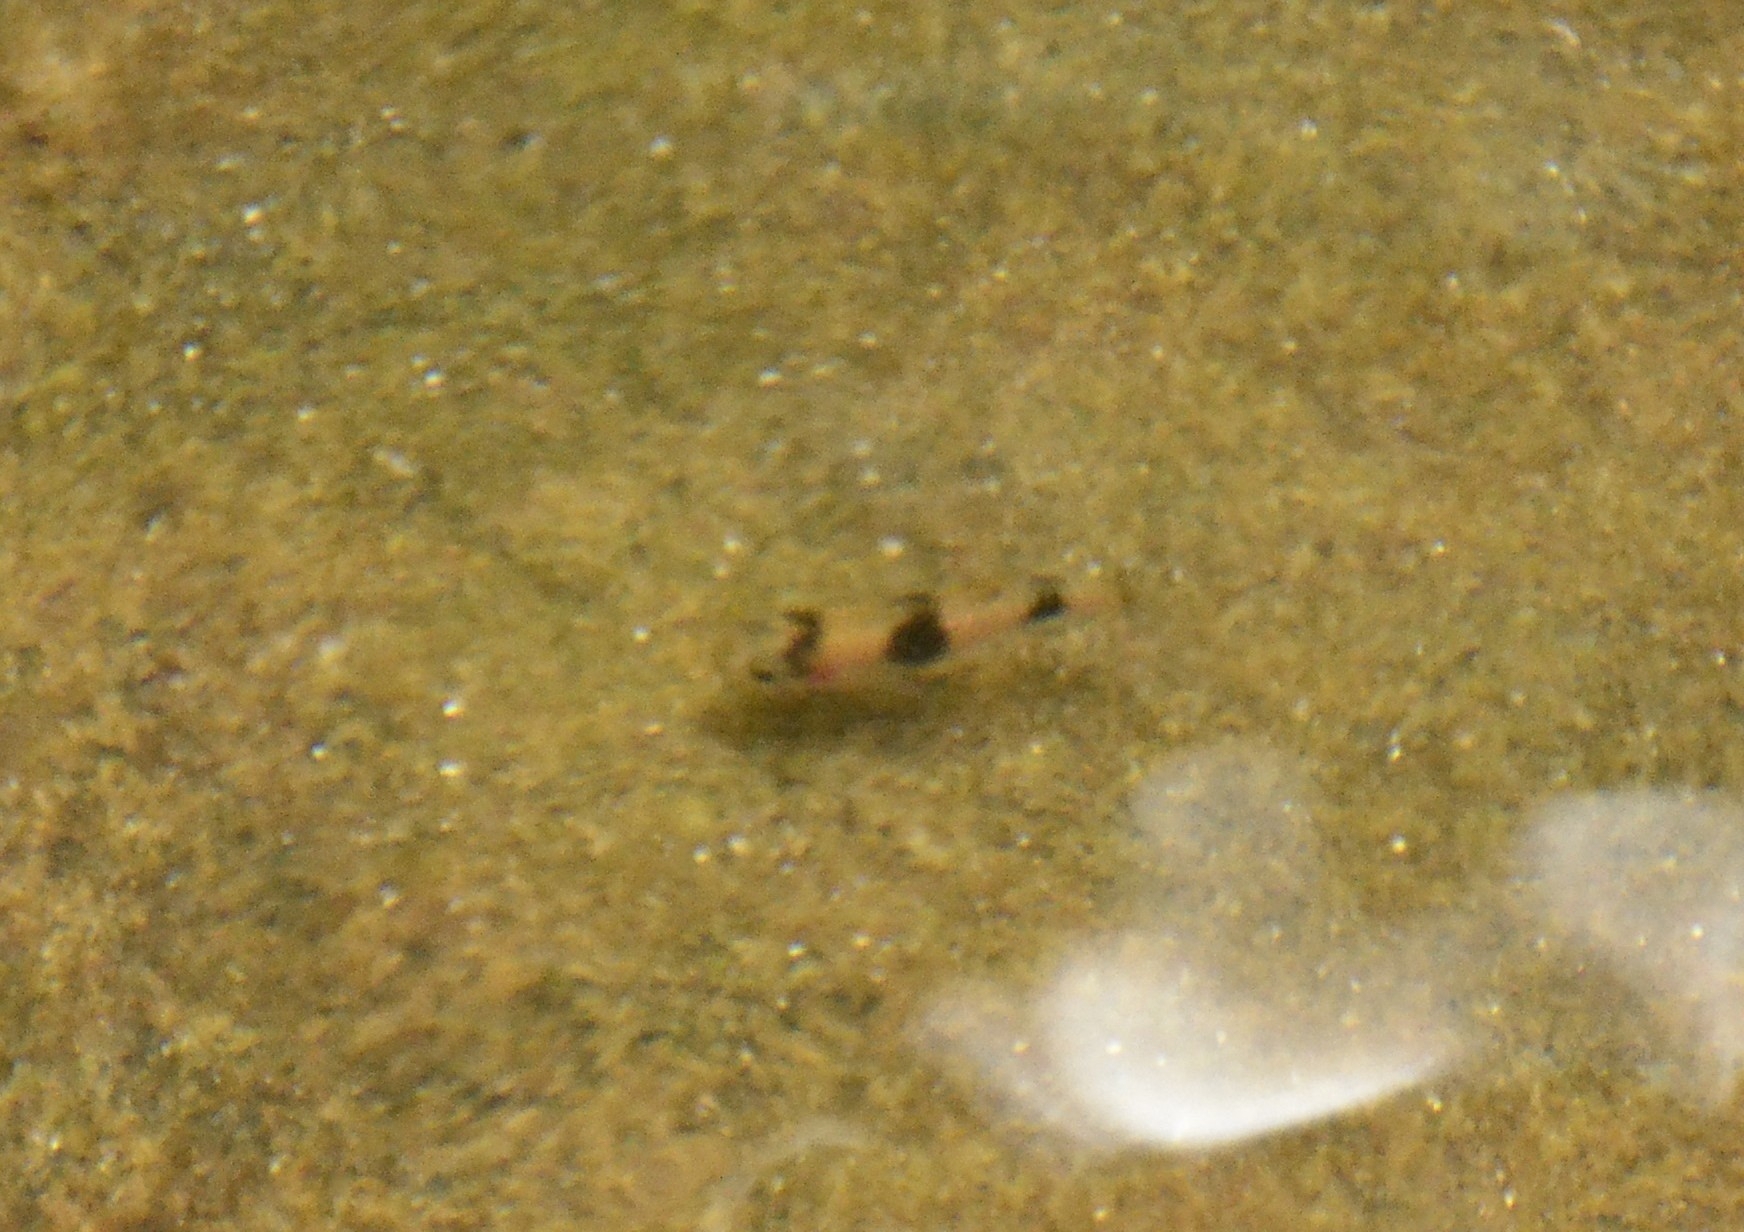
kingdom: Animalia
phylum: Chordata
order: Cypriniformes
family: Cyprinidae
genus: Haludaria
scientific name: Haludaria fasciata
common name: Melon barb
